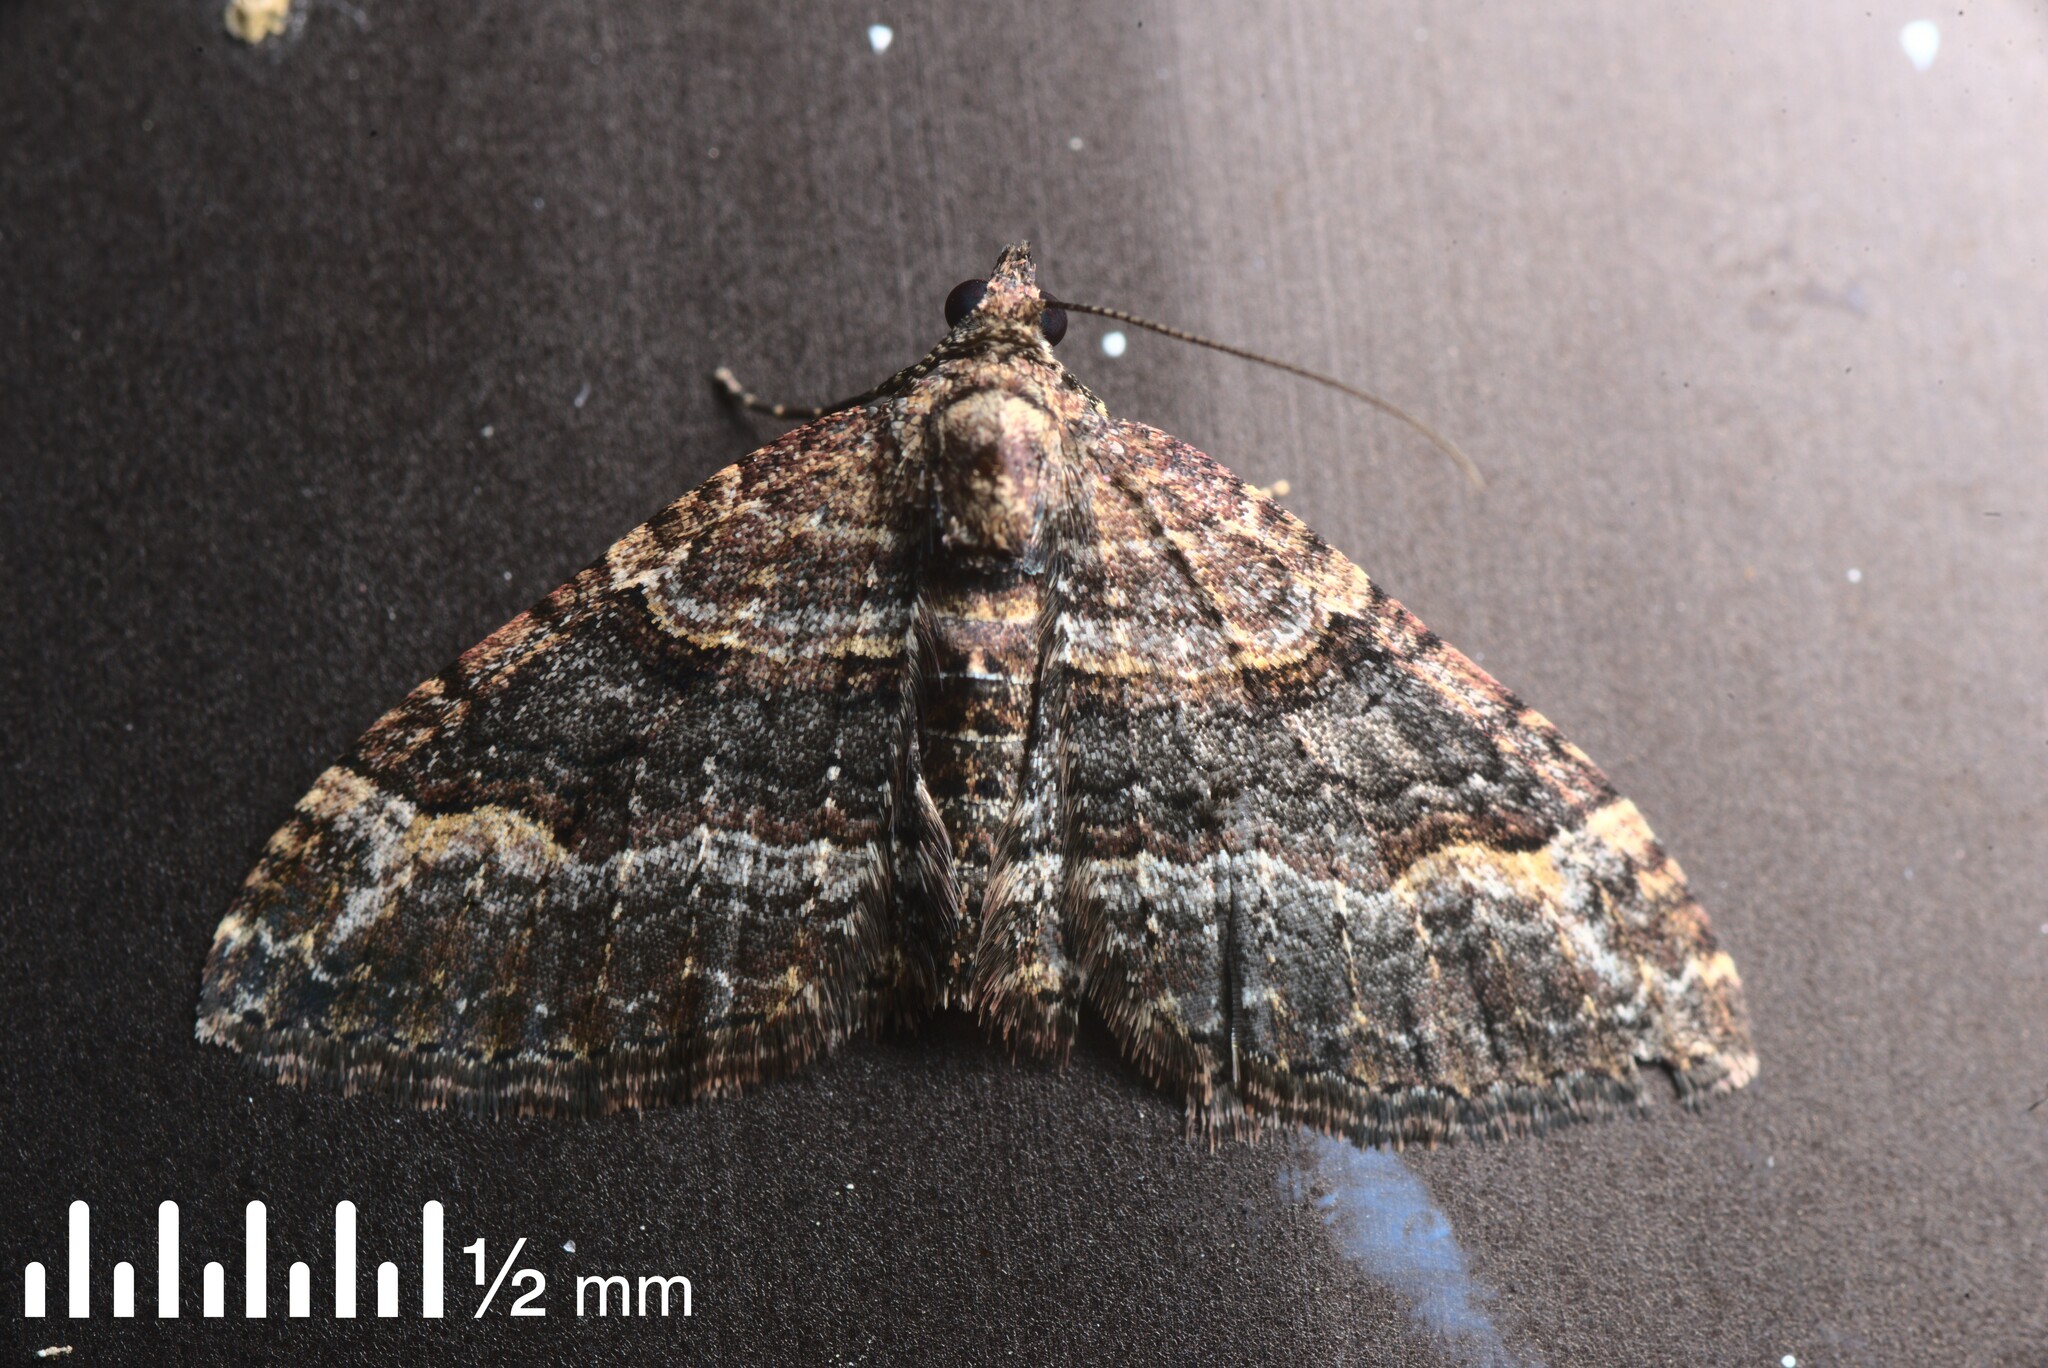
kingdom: Animalia
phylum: Arthropoda
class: Insecta
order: Lepidoptera
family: Geometridae
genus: Epyaxa
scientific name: Epyaxa lucidata
